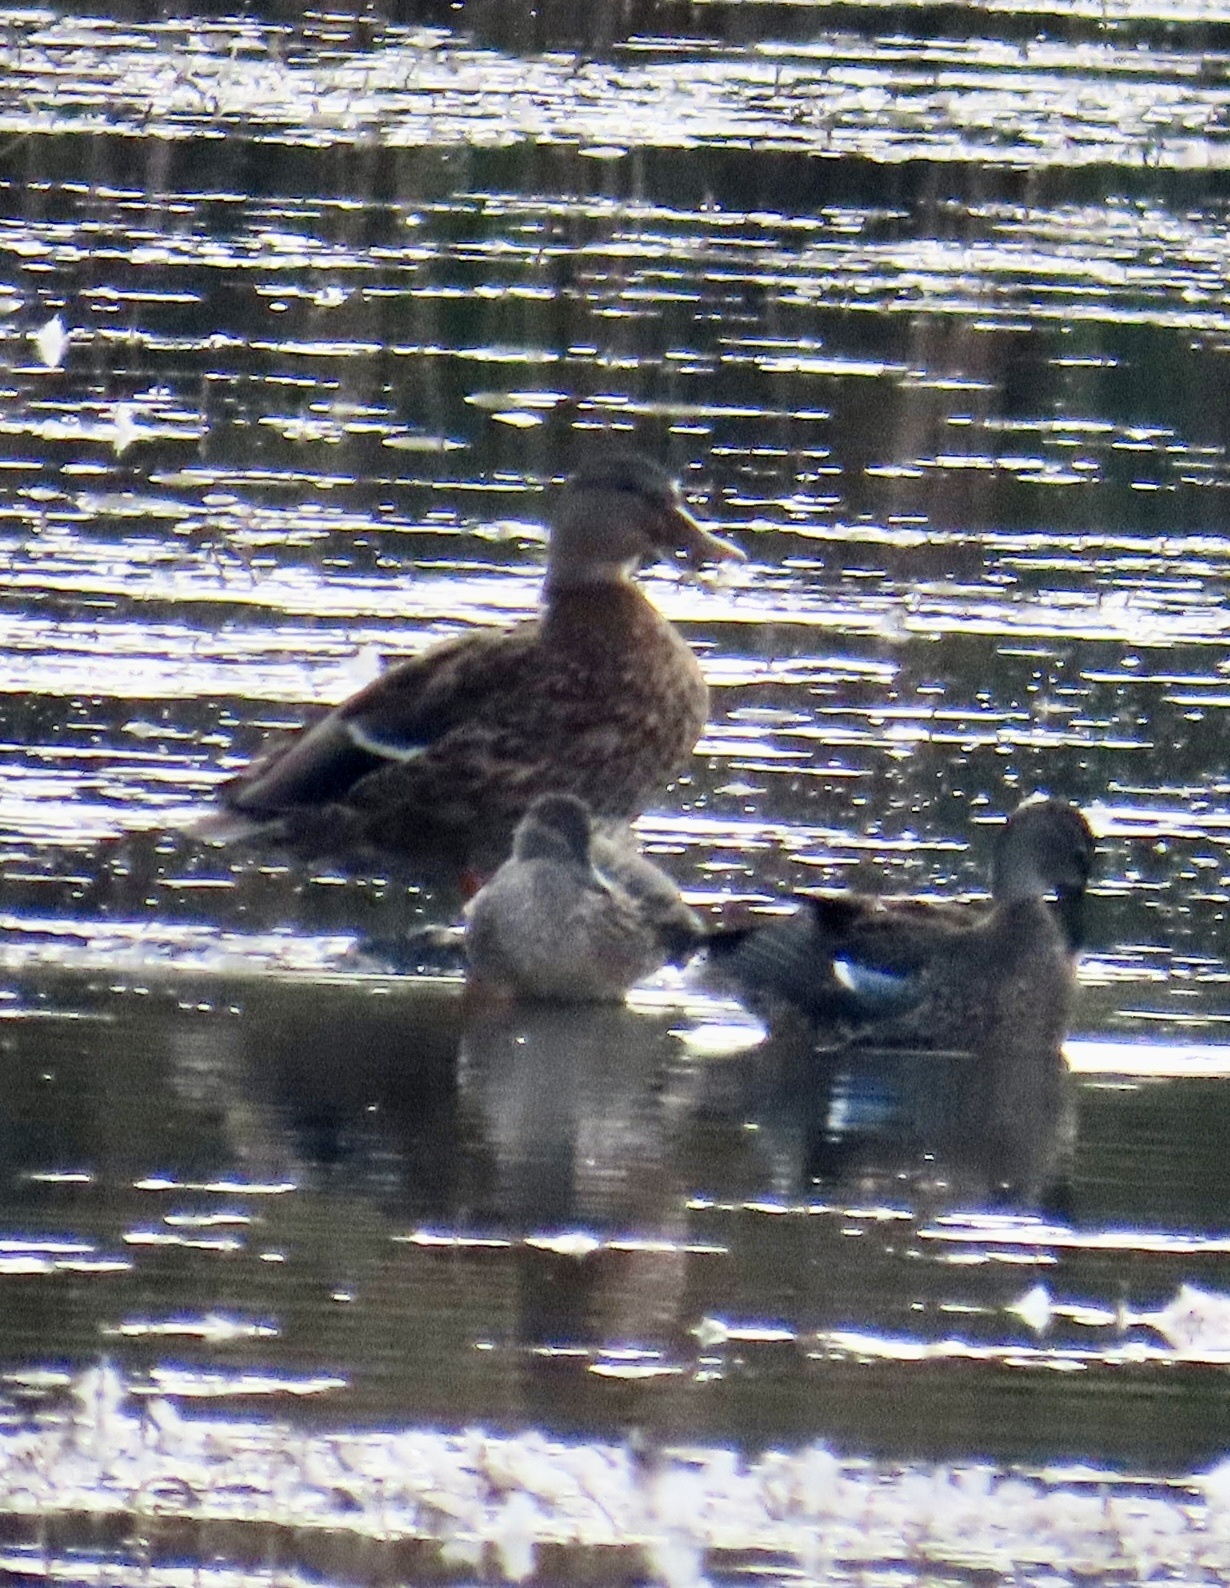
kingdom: Animalia
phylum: Chordata
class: Aves
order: Anseriformes
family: Anatidae
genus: Anas
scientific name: Anas platyrhynchos
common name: Mallard
